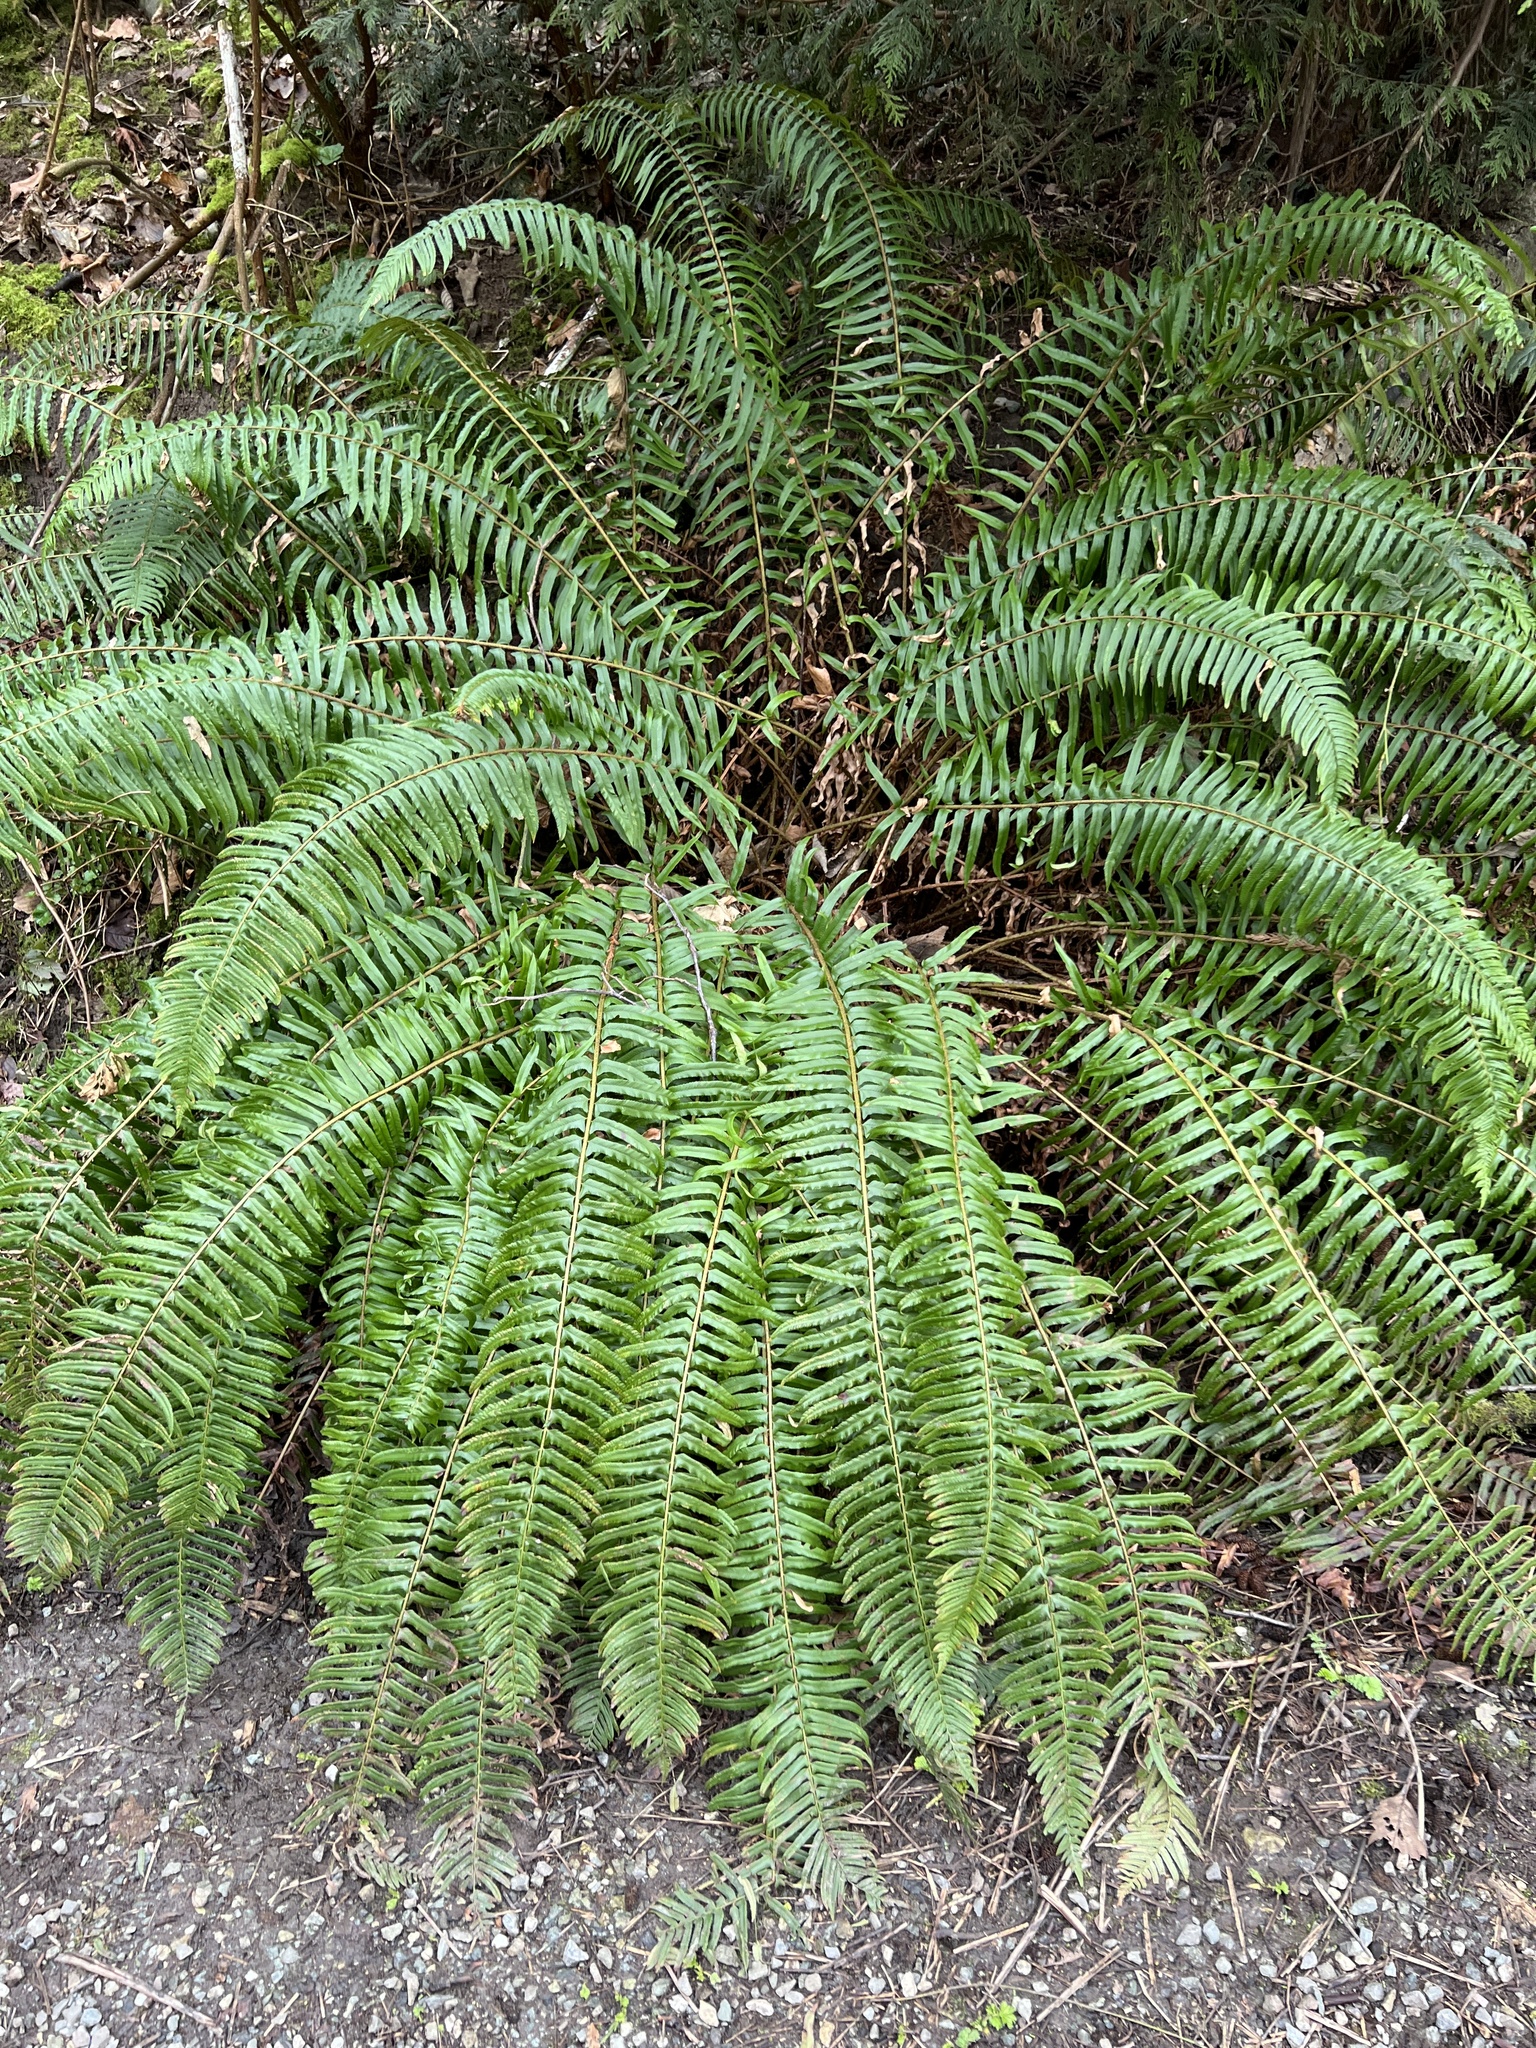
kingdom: Plantae
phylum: Tracheophyta
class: Polypodiopsida
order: Polypodiales
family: Dryopteridaceae
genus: Polystichum
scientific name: Polystichum munitum
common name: Western sword-fern
